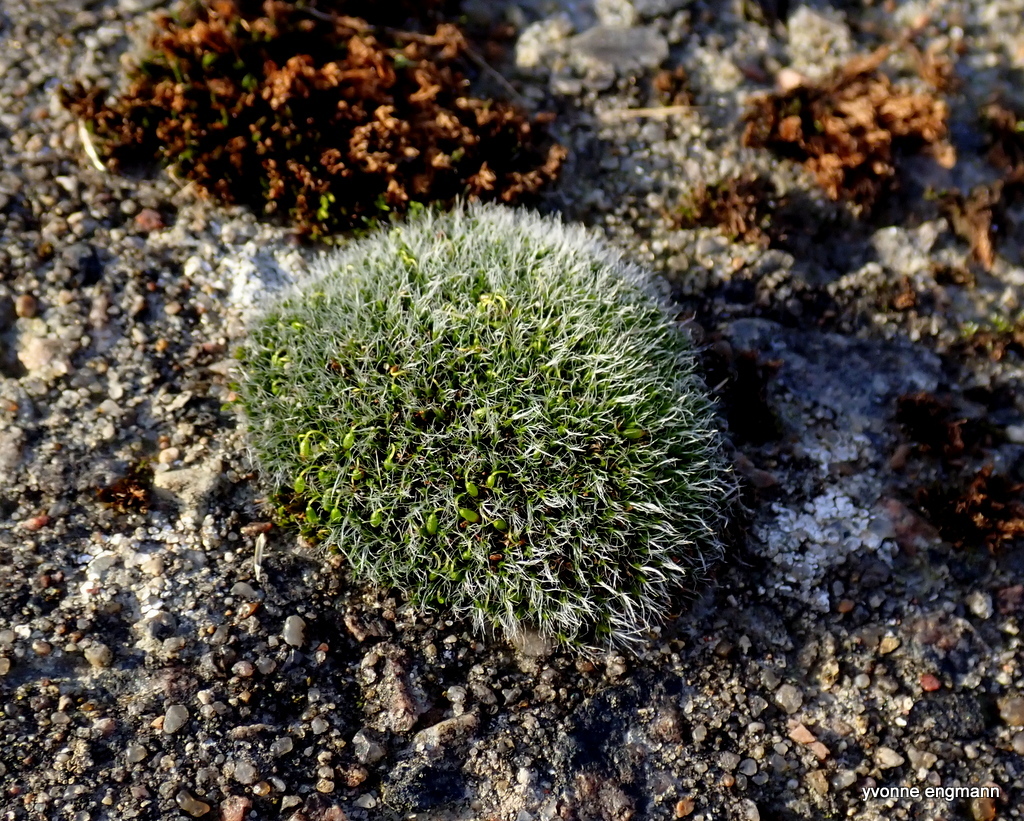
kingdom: Plantae
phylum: Bryophyta
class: Bryopsida
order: Grimmiales
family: Grimmiaceae
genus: Grimmia
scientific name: Grimmia pulvinata
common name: Grey-cushioned grimmia
